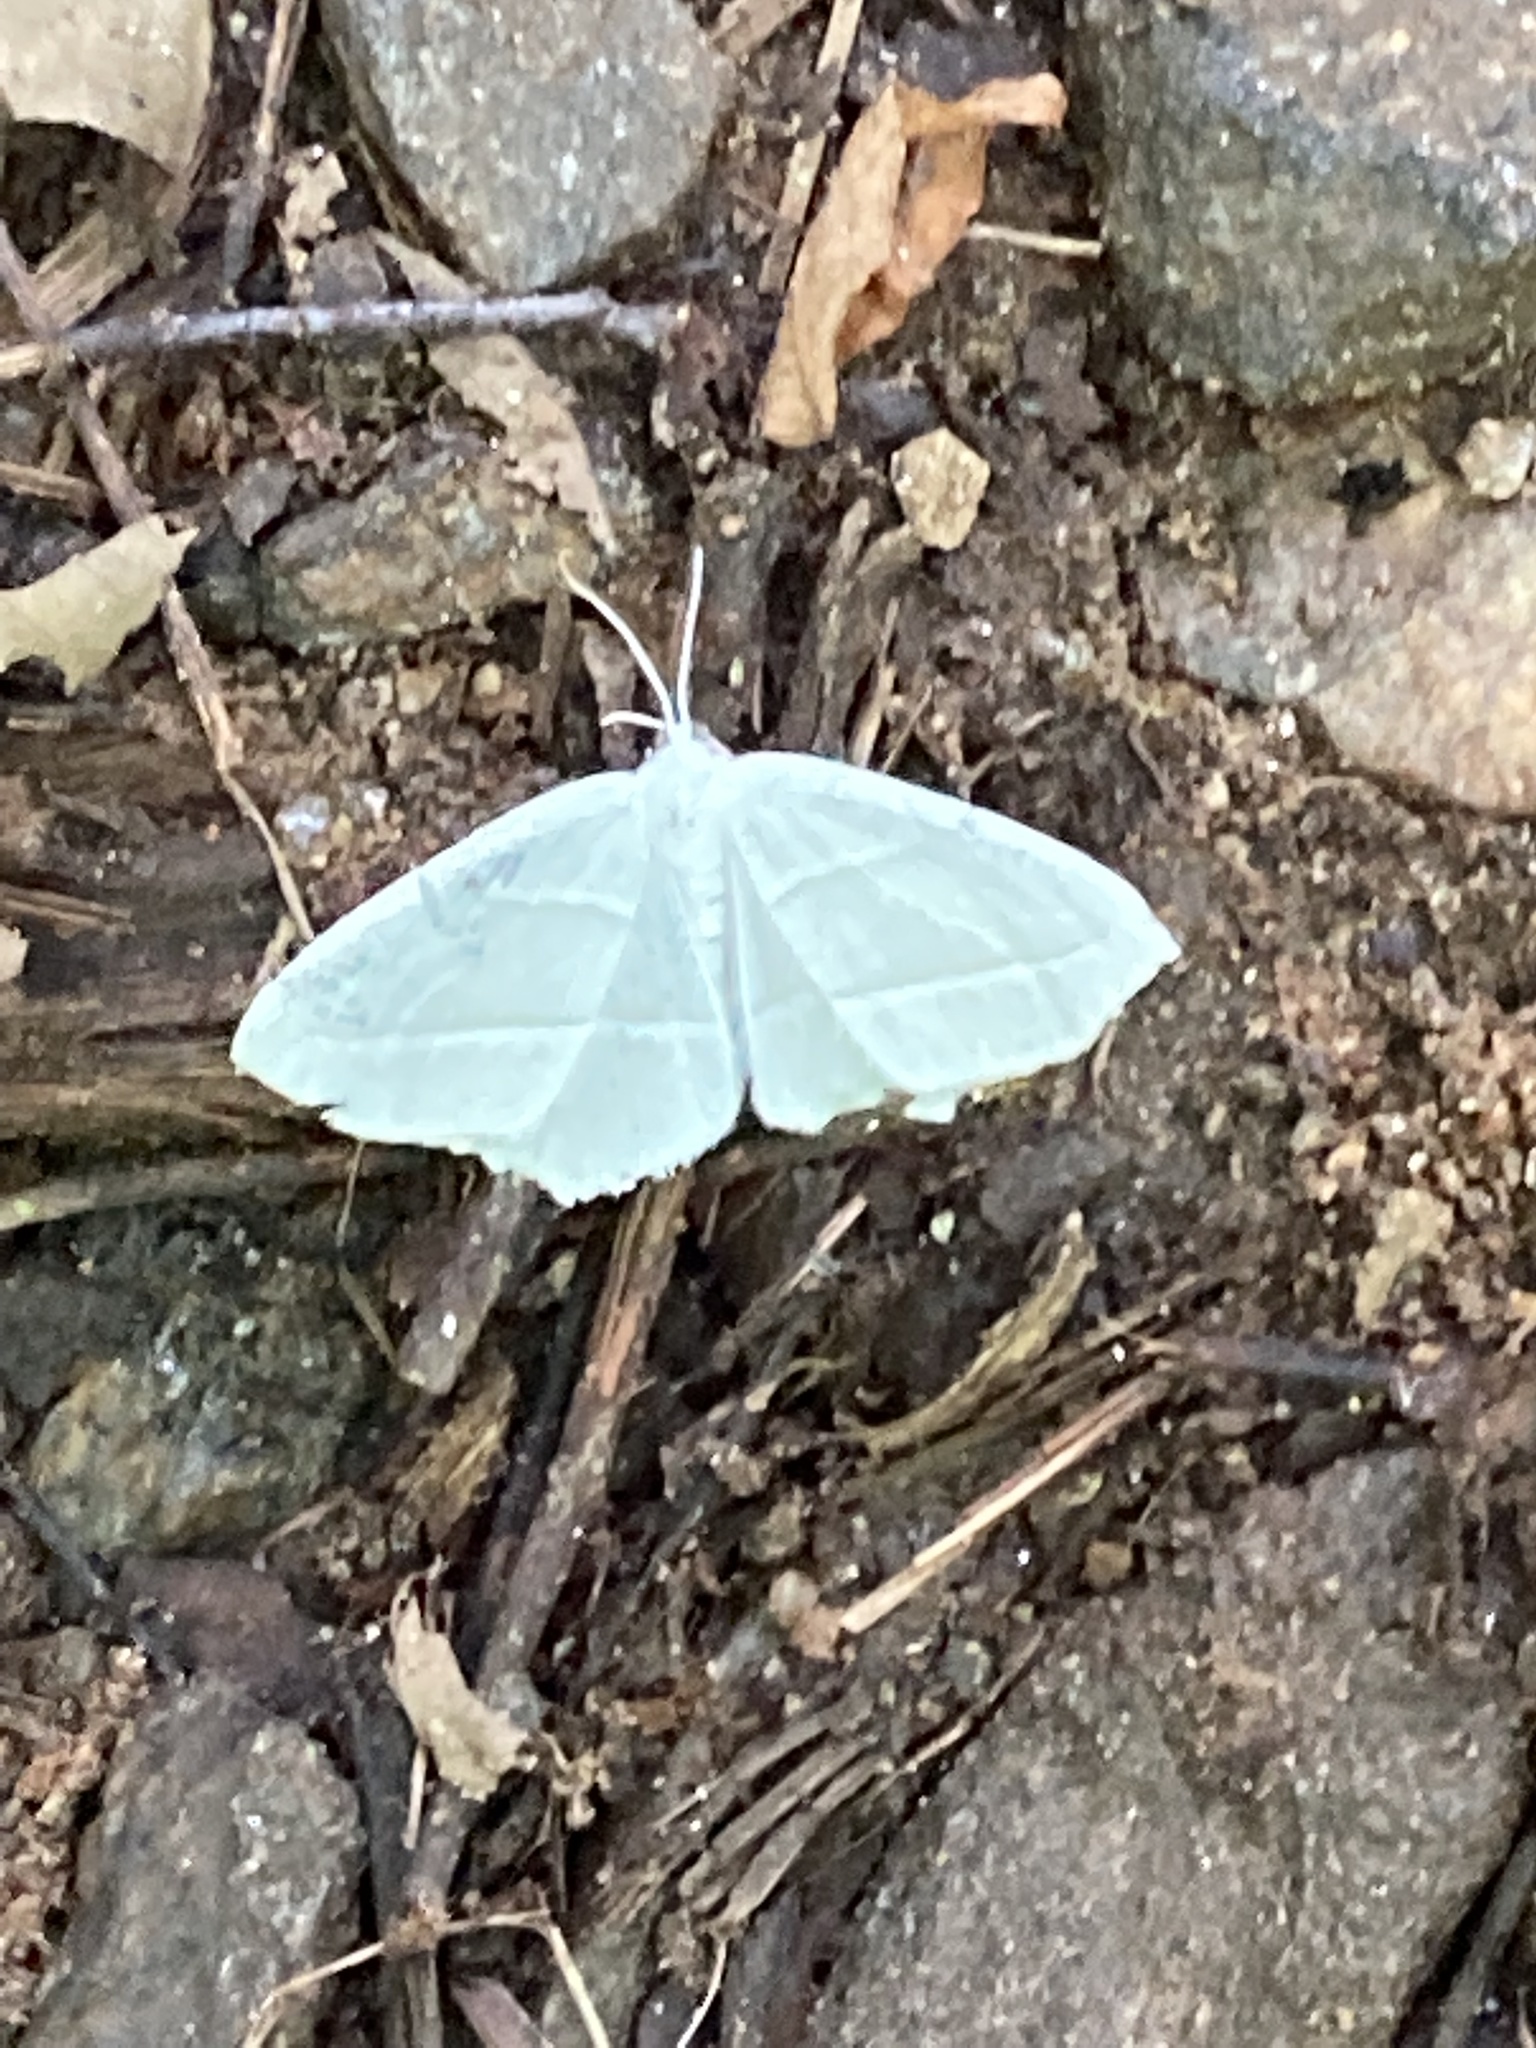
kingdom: Animalia
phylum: Arthropoda
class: Insecta
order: Lepidoptera
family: Geometridae
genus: Campaea
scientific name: Campaea perlata
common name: Fringed looper
